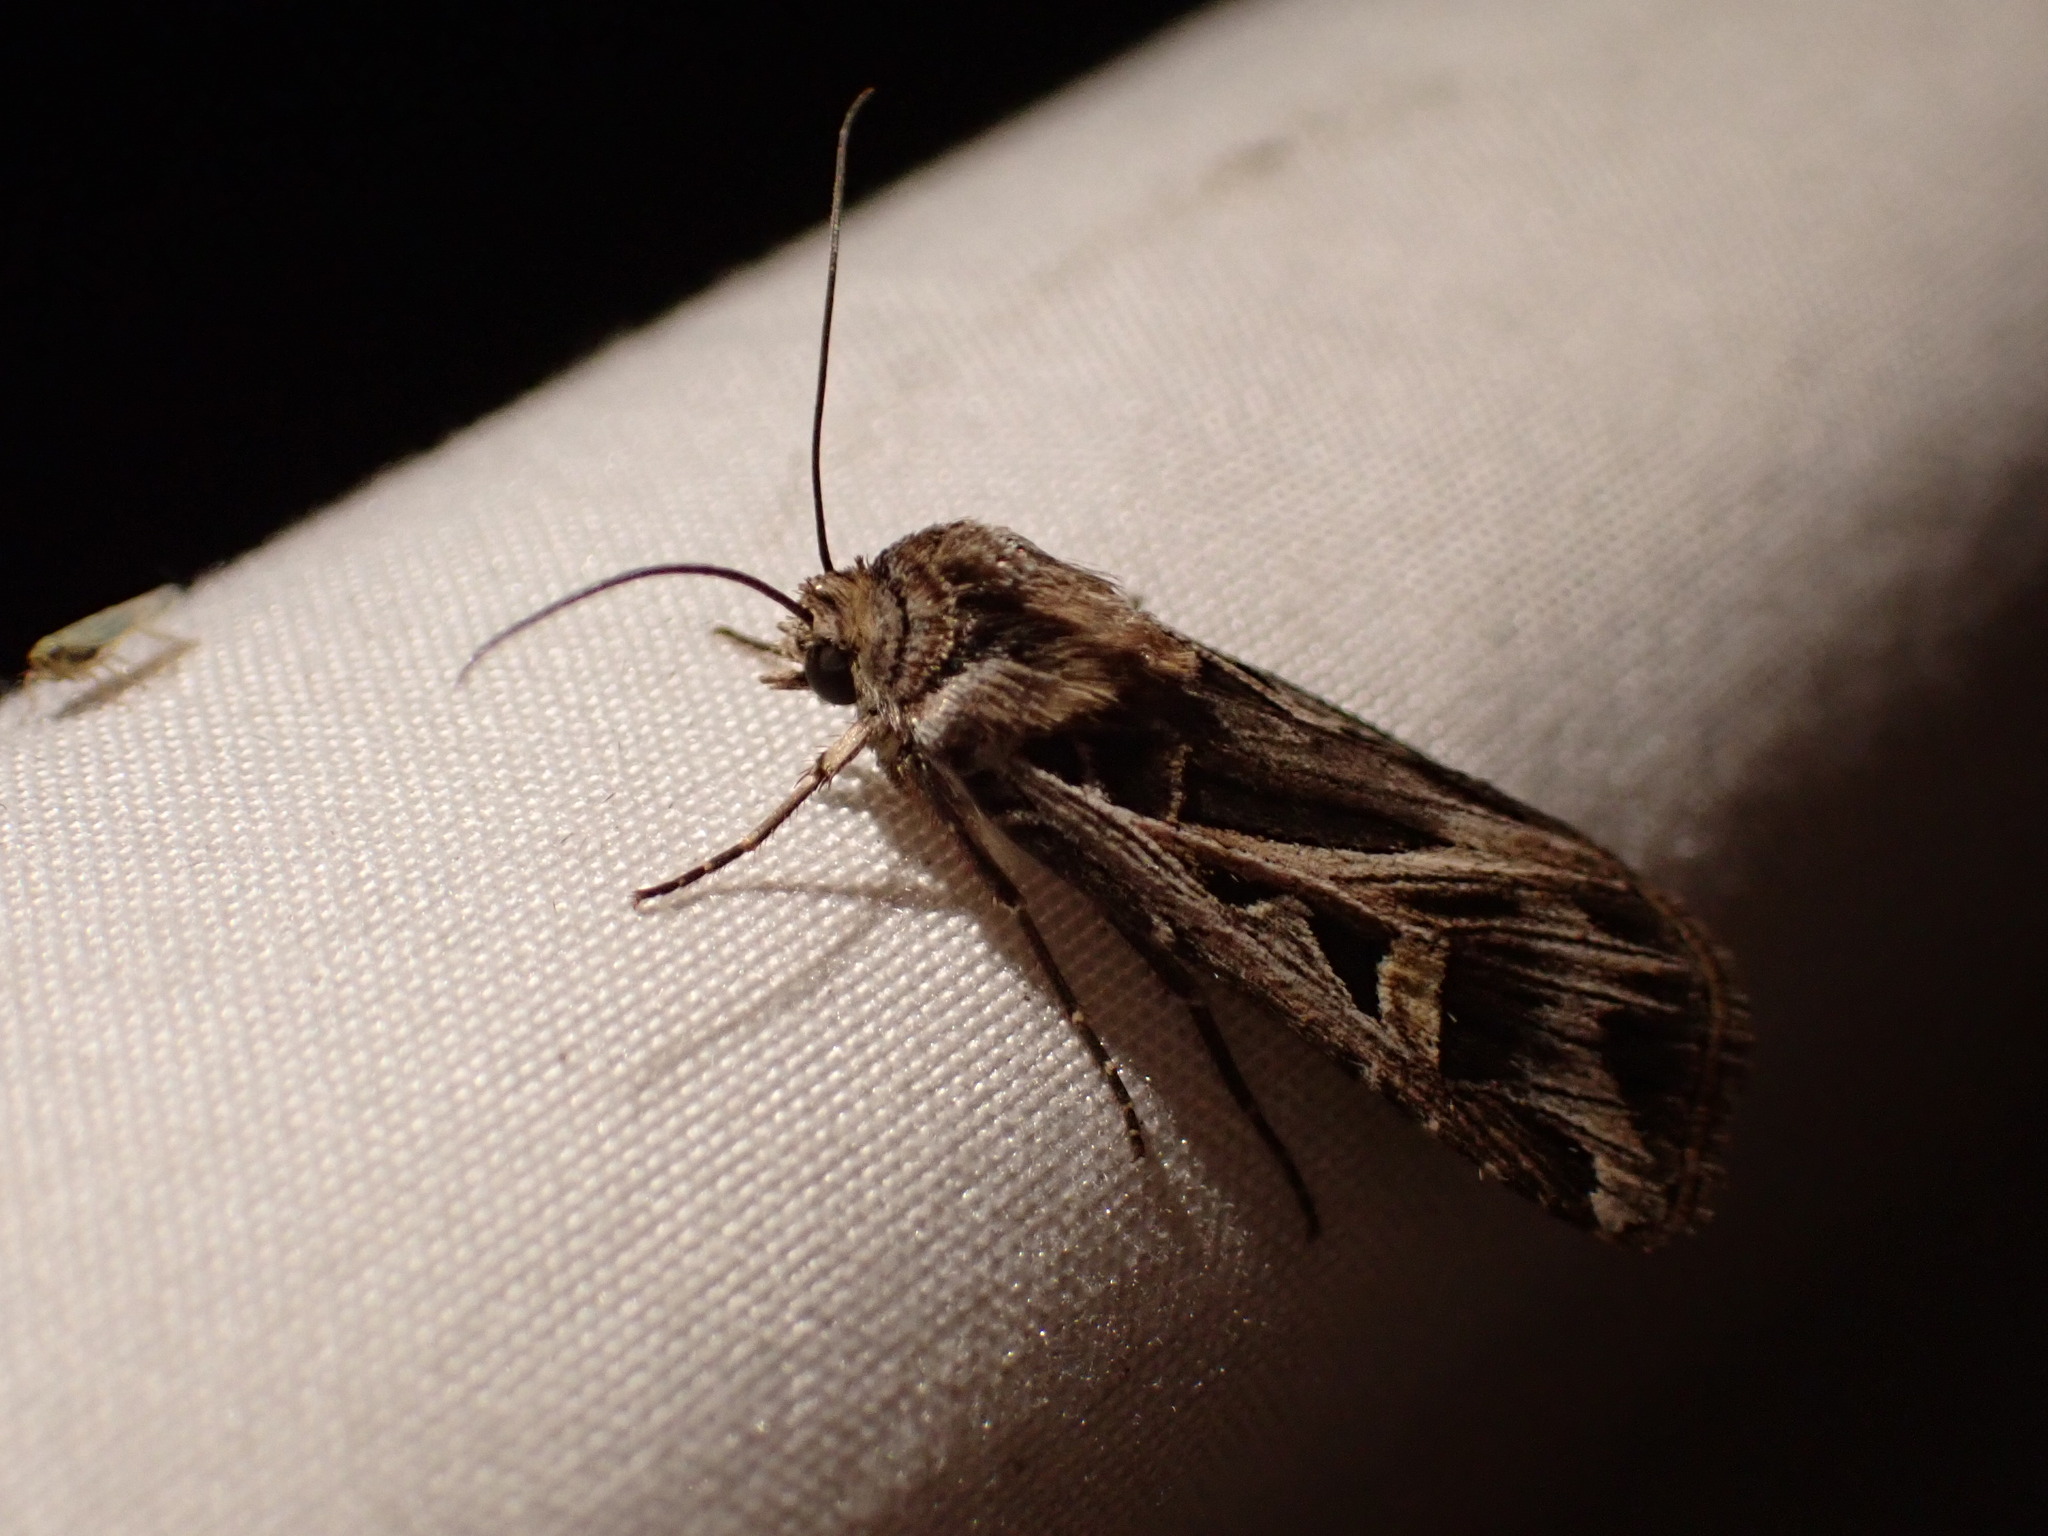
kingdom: Animalia
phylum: Arthropoda
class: Insecta
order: Lepidoptera
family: Noctuidae
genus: Feltia
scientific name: Feltia jaculifera
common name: Dingy cutworm moth
